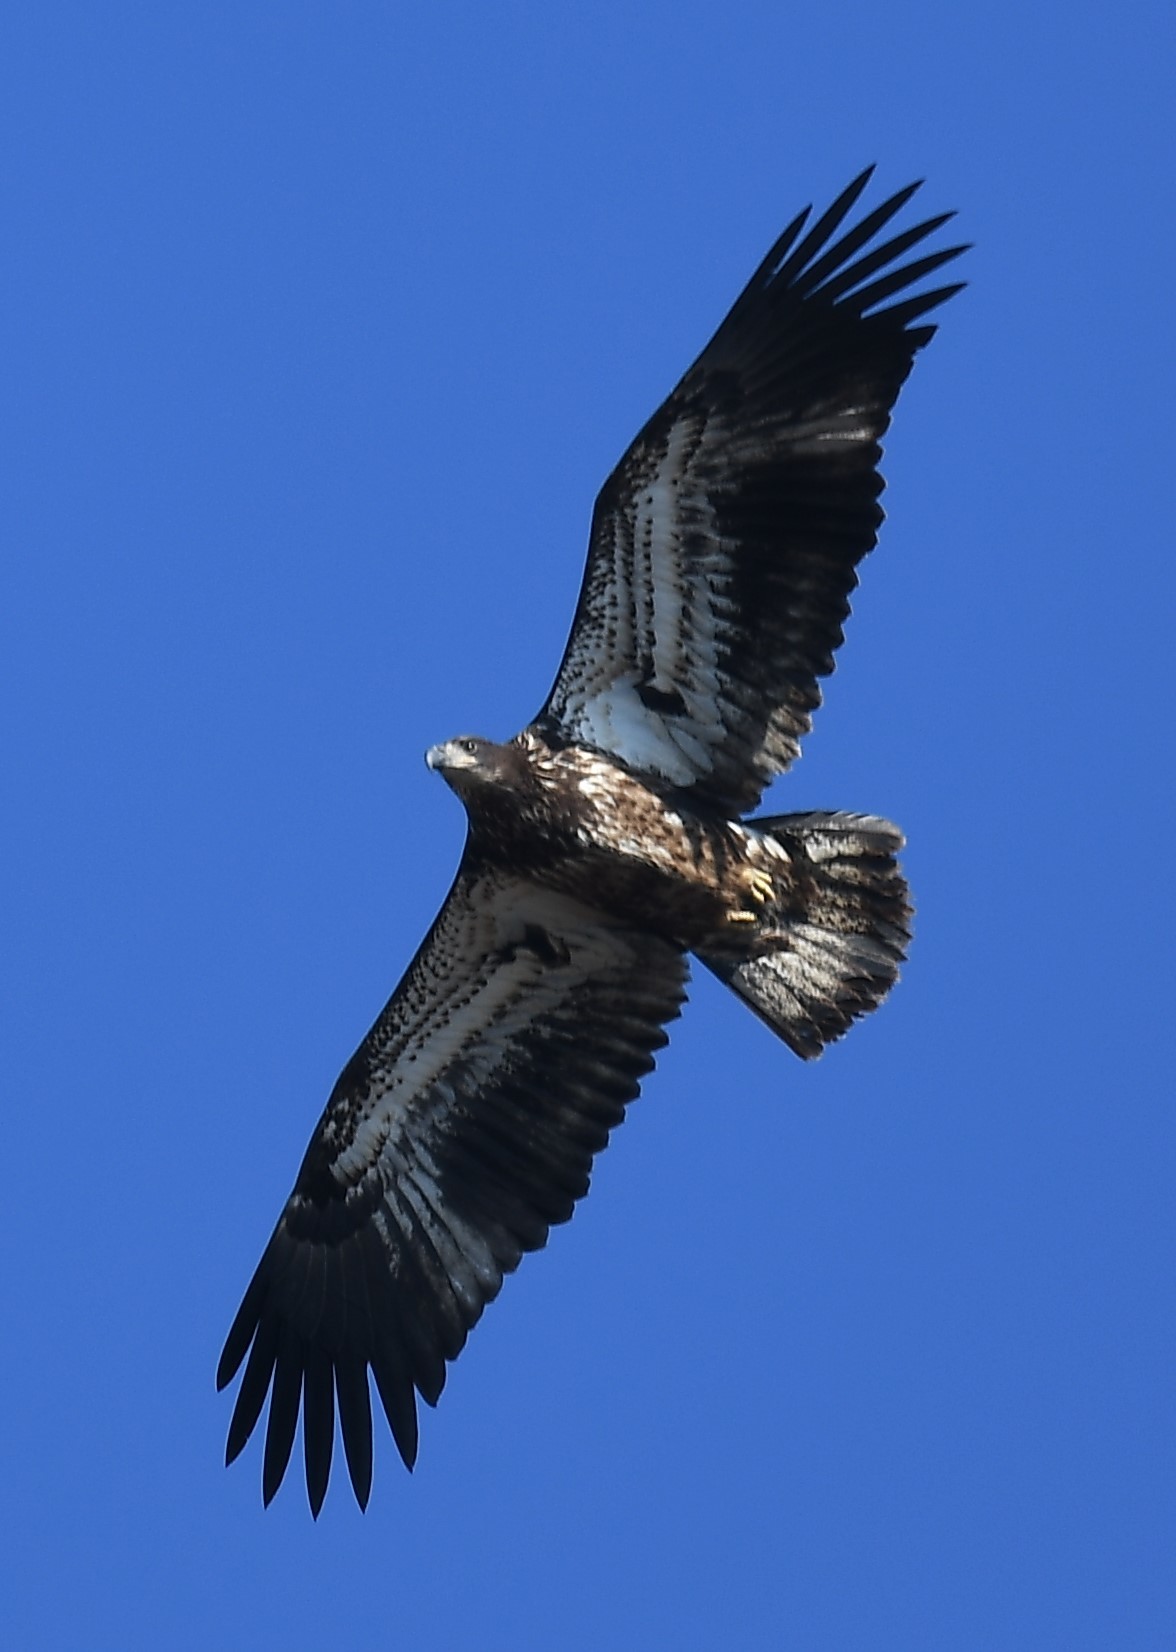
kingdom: Animalia
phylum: Chordata
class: Aves
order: Accipitriformes
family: Accipitridae
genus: Haliaeetus
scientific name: Haliaeetus leucocephalus
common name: Bald eagle
